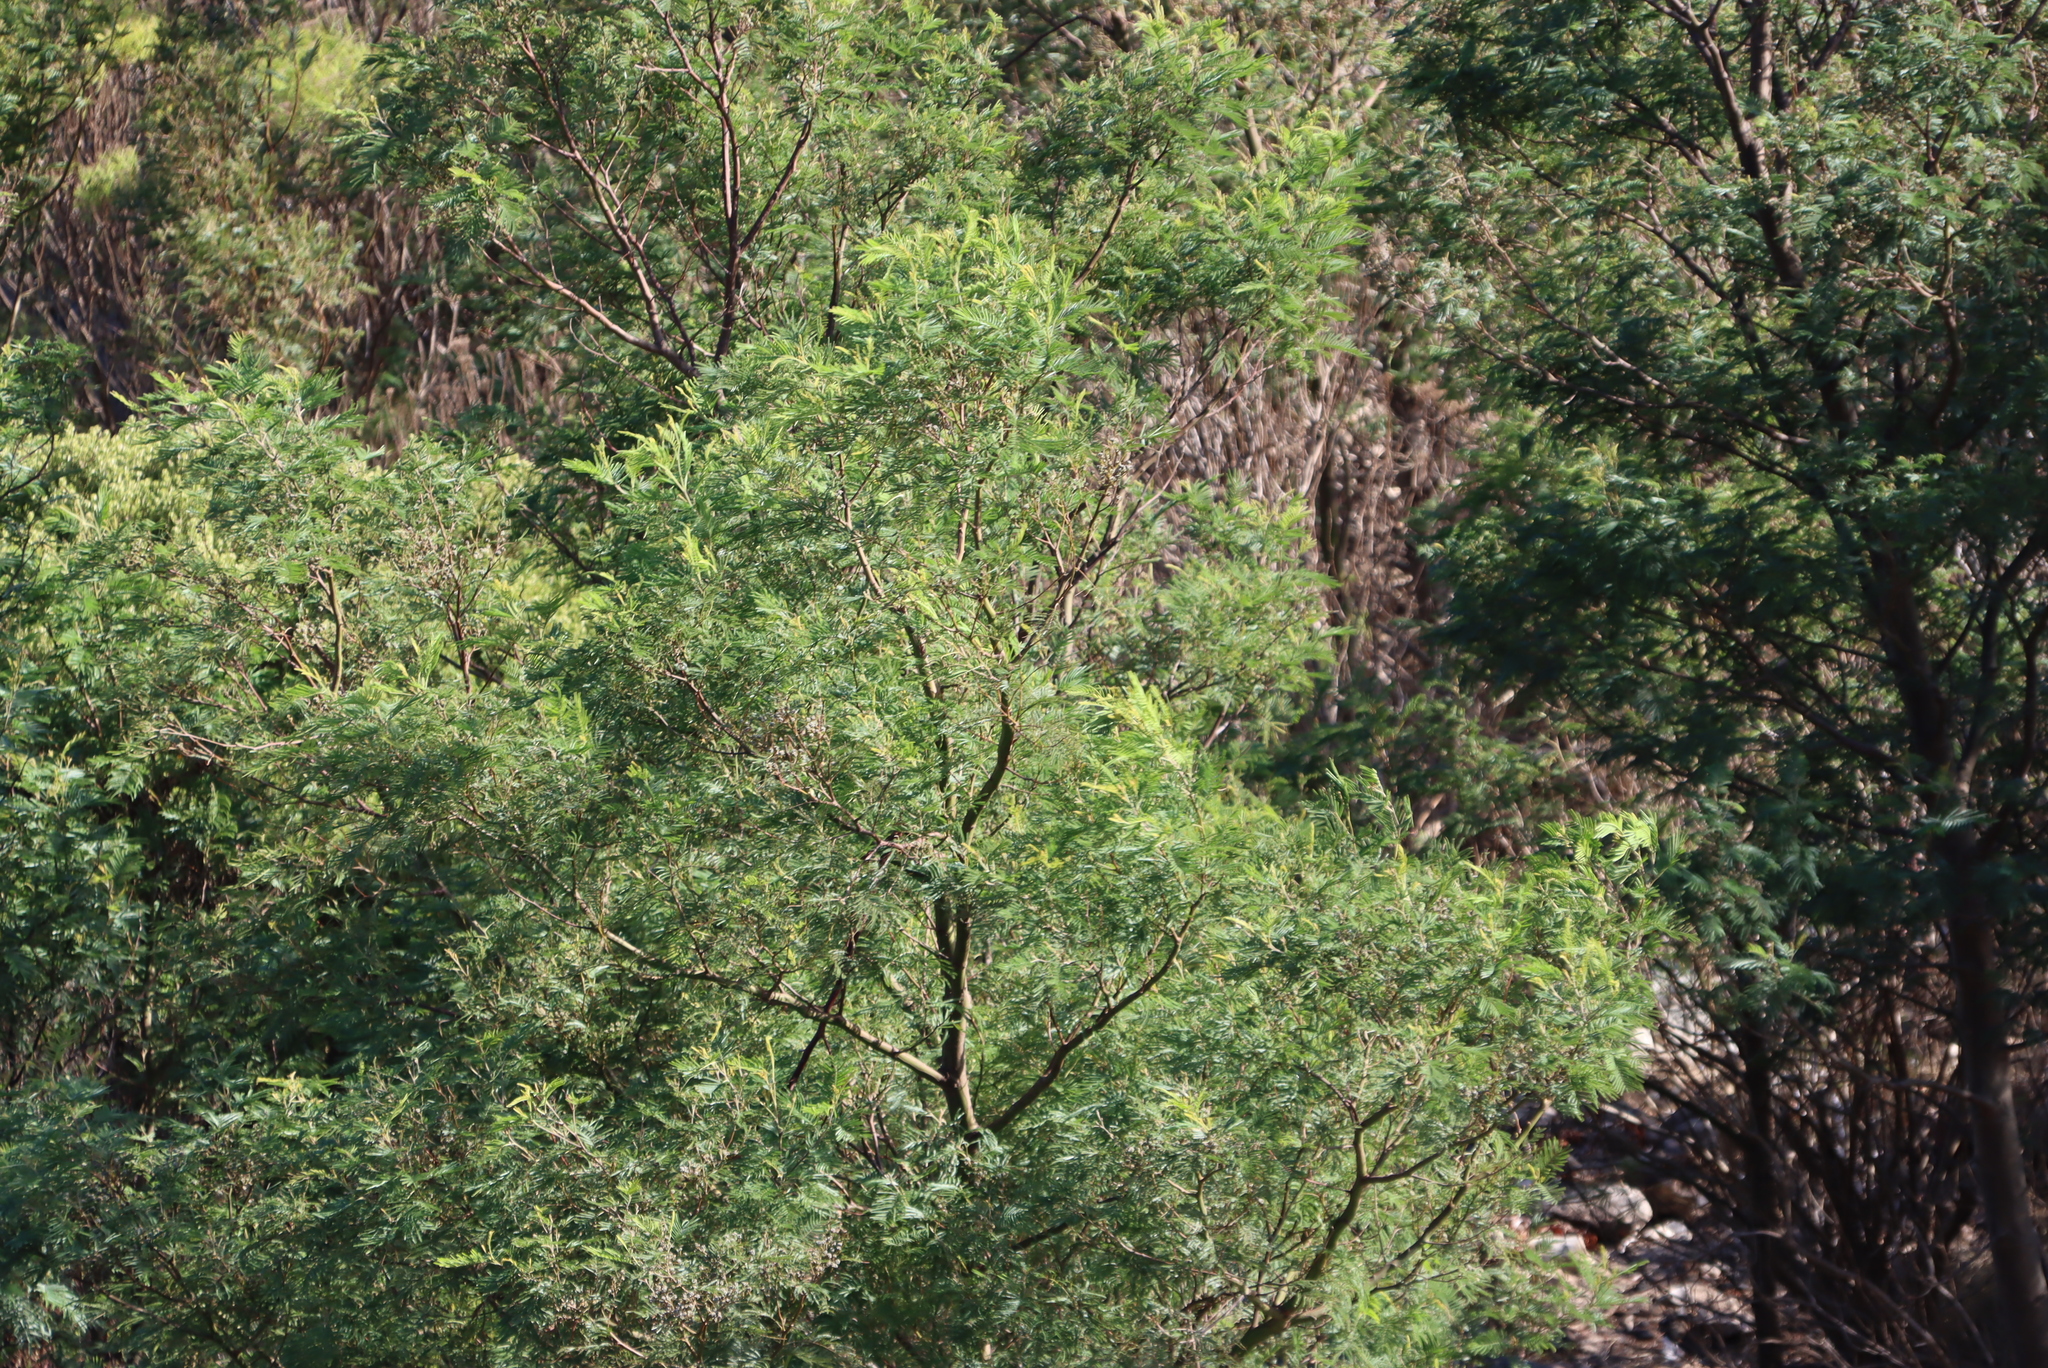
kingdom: Plantae
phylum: Tracheophyta
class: Magnoliopsida
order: Fabales
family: Fabaceae
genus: Acacia
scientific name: Acacia mearnsii
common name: Black wattle
